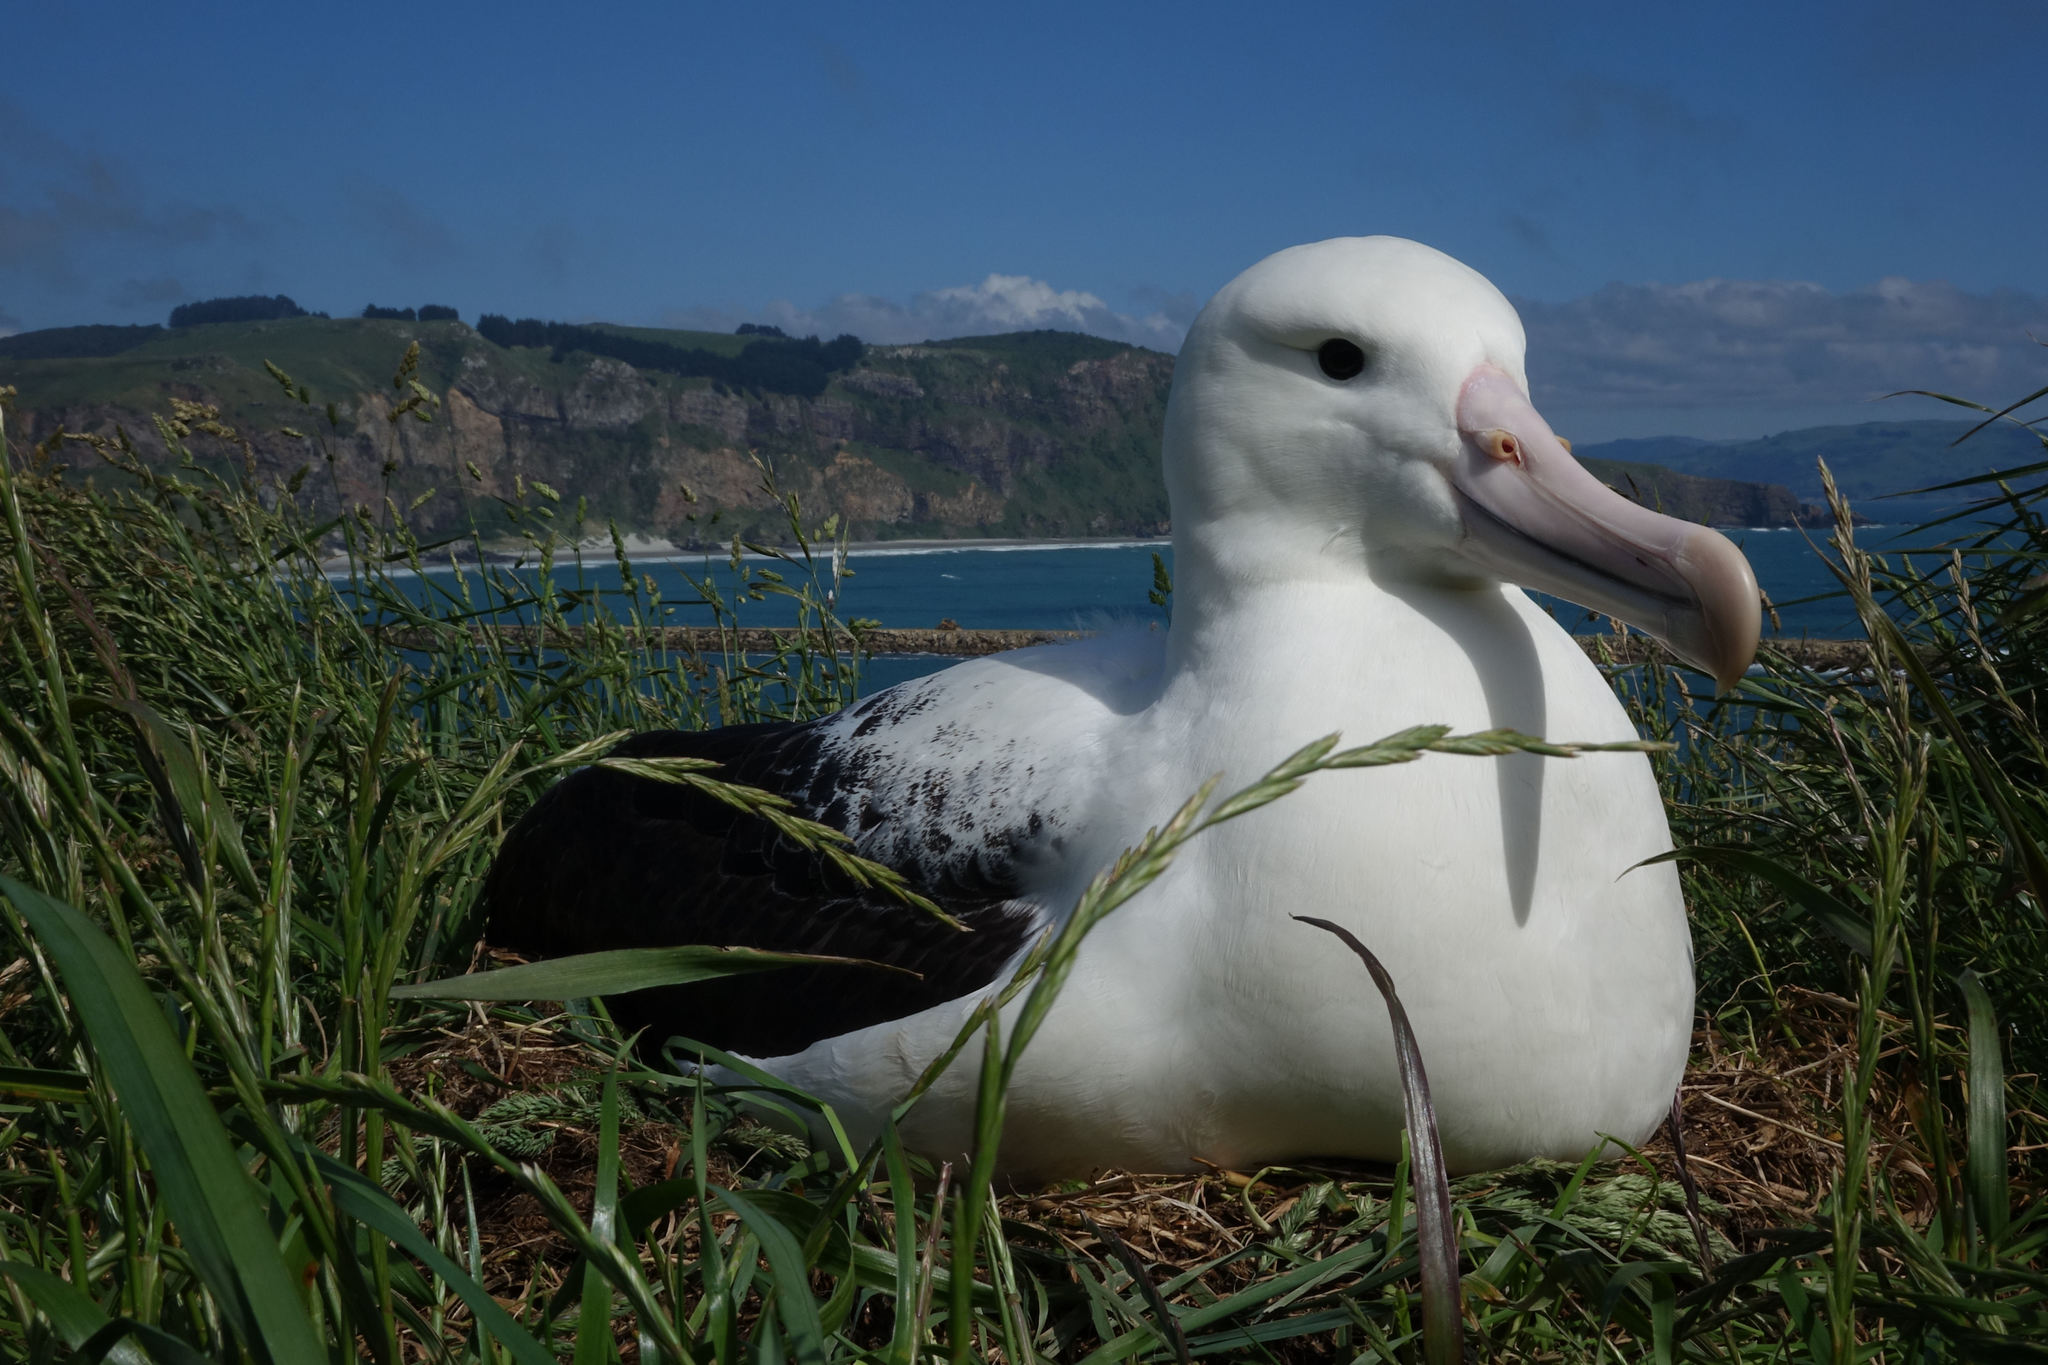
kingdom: Animalia
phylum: Chordata
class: Aves
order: Procellariiformes
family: Diomedeidae
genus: Diomedea
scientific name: Diomedea sanfordi
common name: Northern royal albatross
